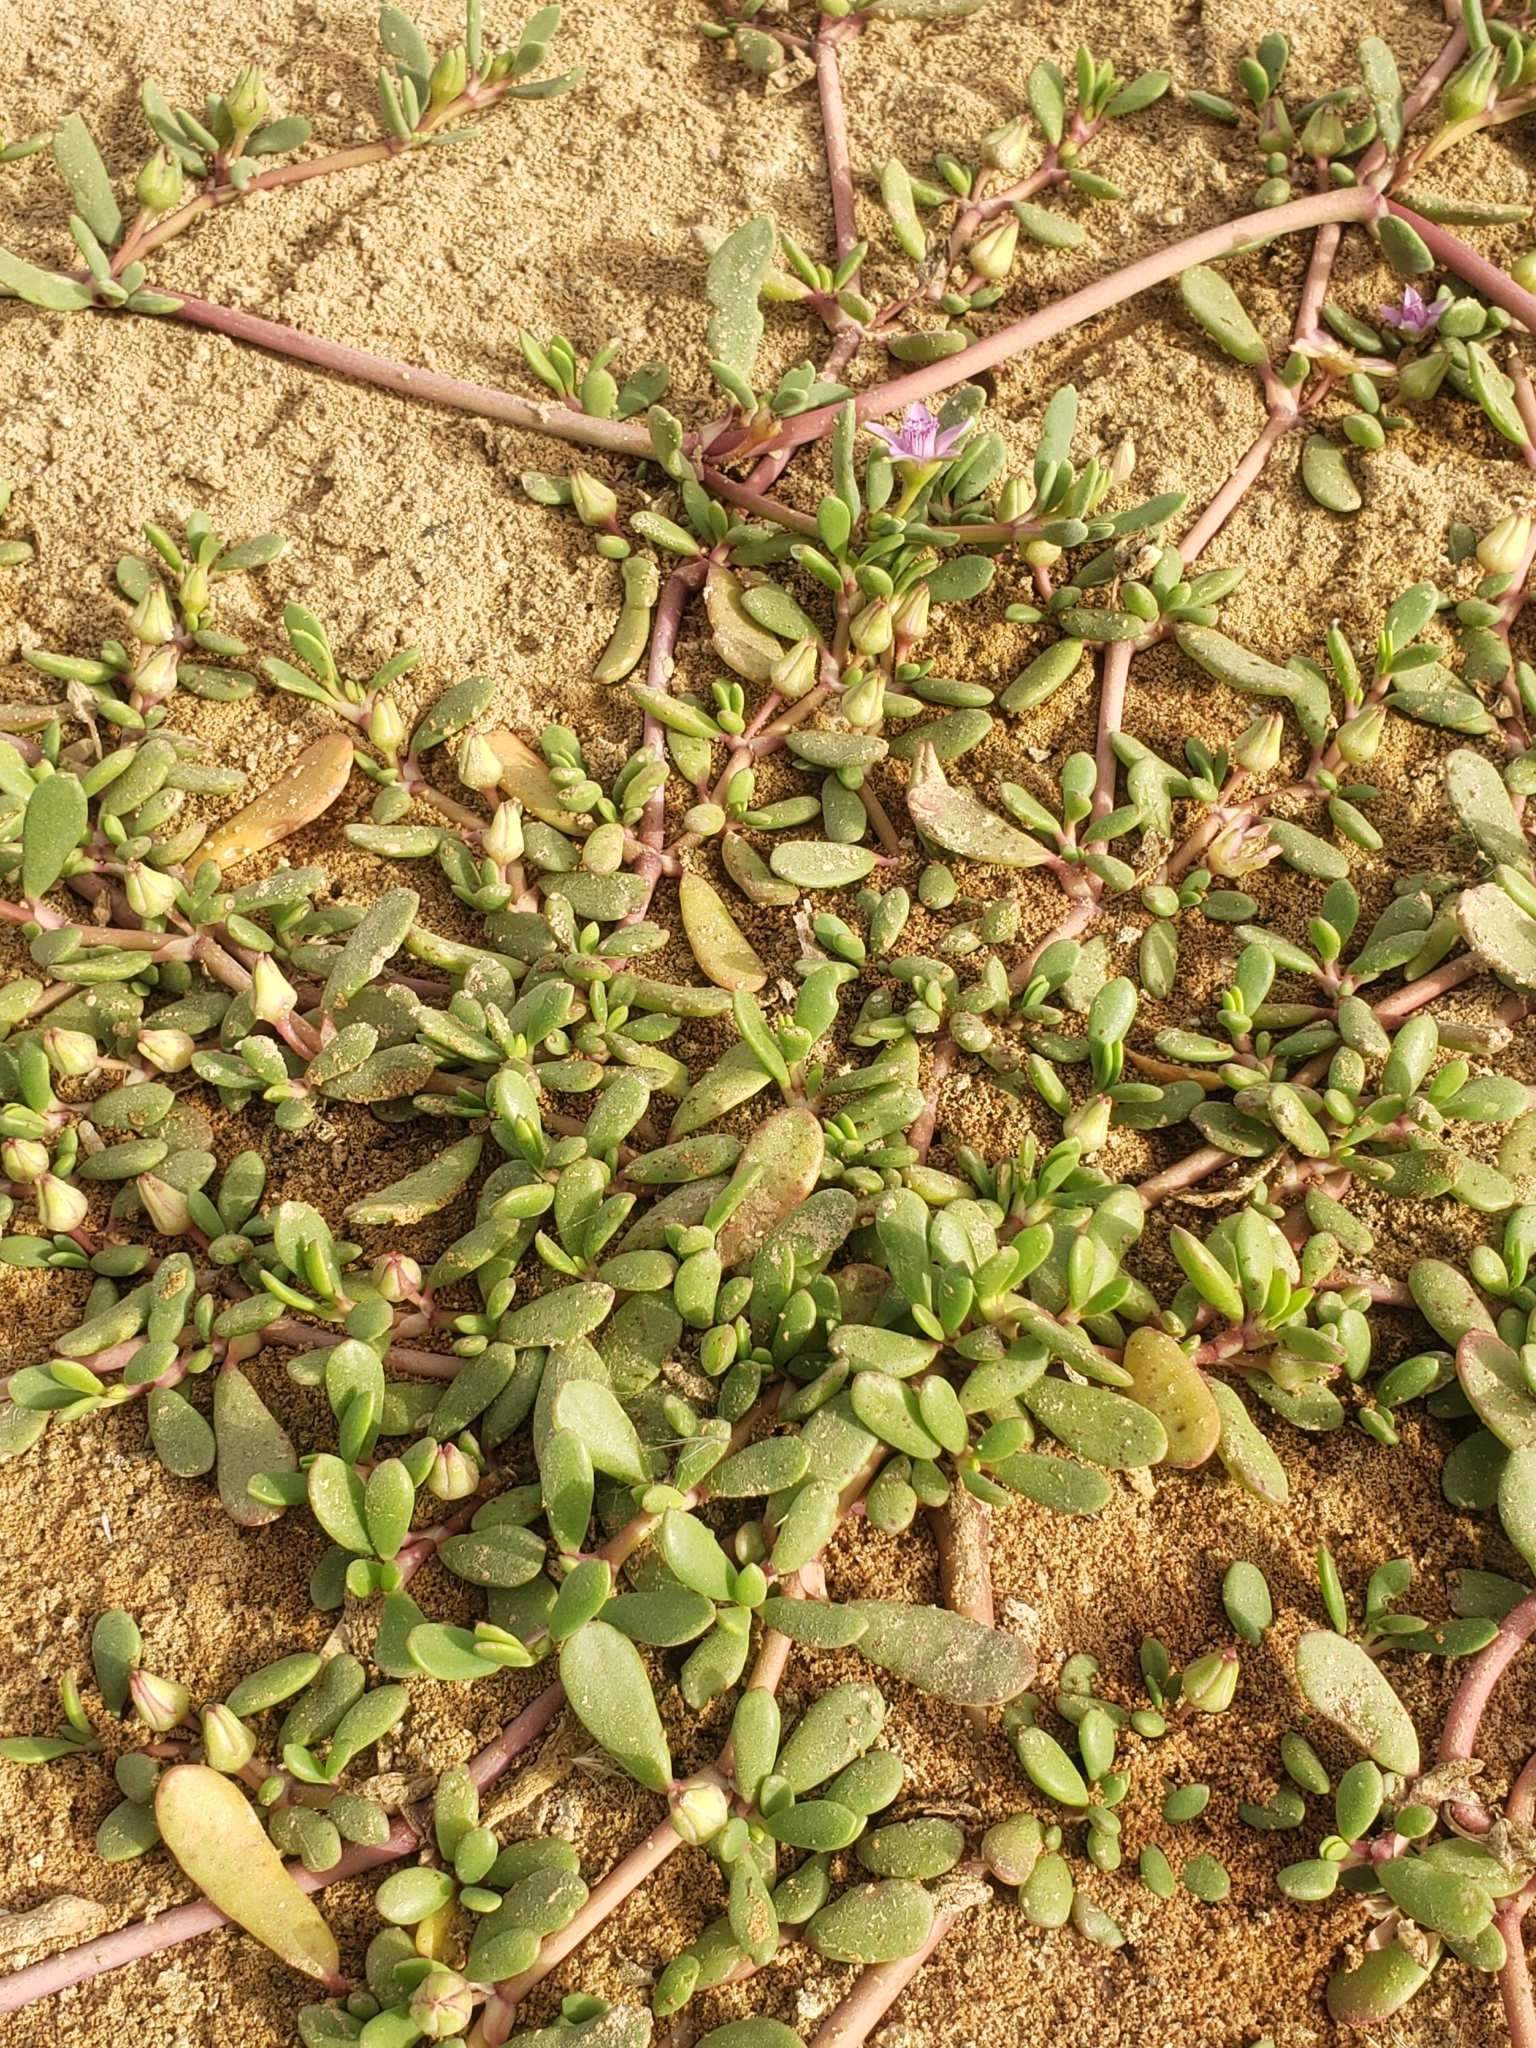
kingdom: Plantae
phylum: Tracheophyta
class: Magnoliopsida
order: Caryophyllales
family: Aizoaceae
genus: Sesuvium
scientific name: Sesuvium portulacastrum
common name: Sea-purslane
